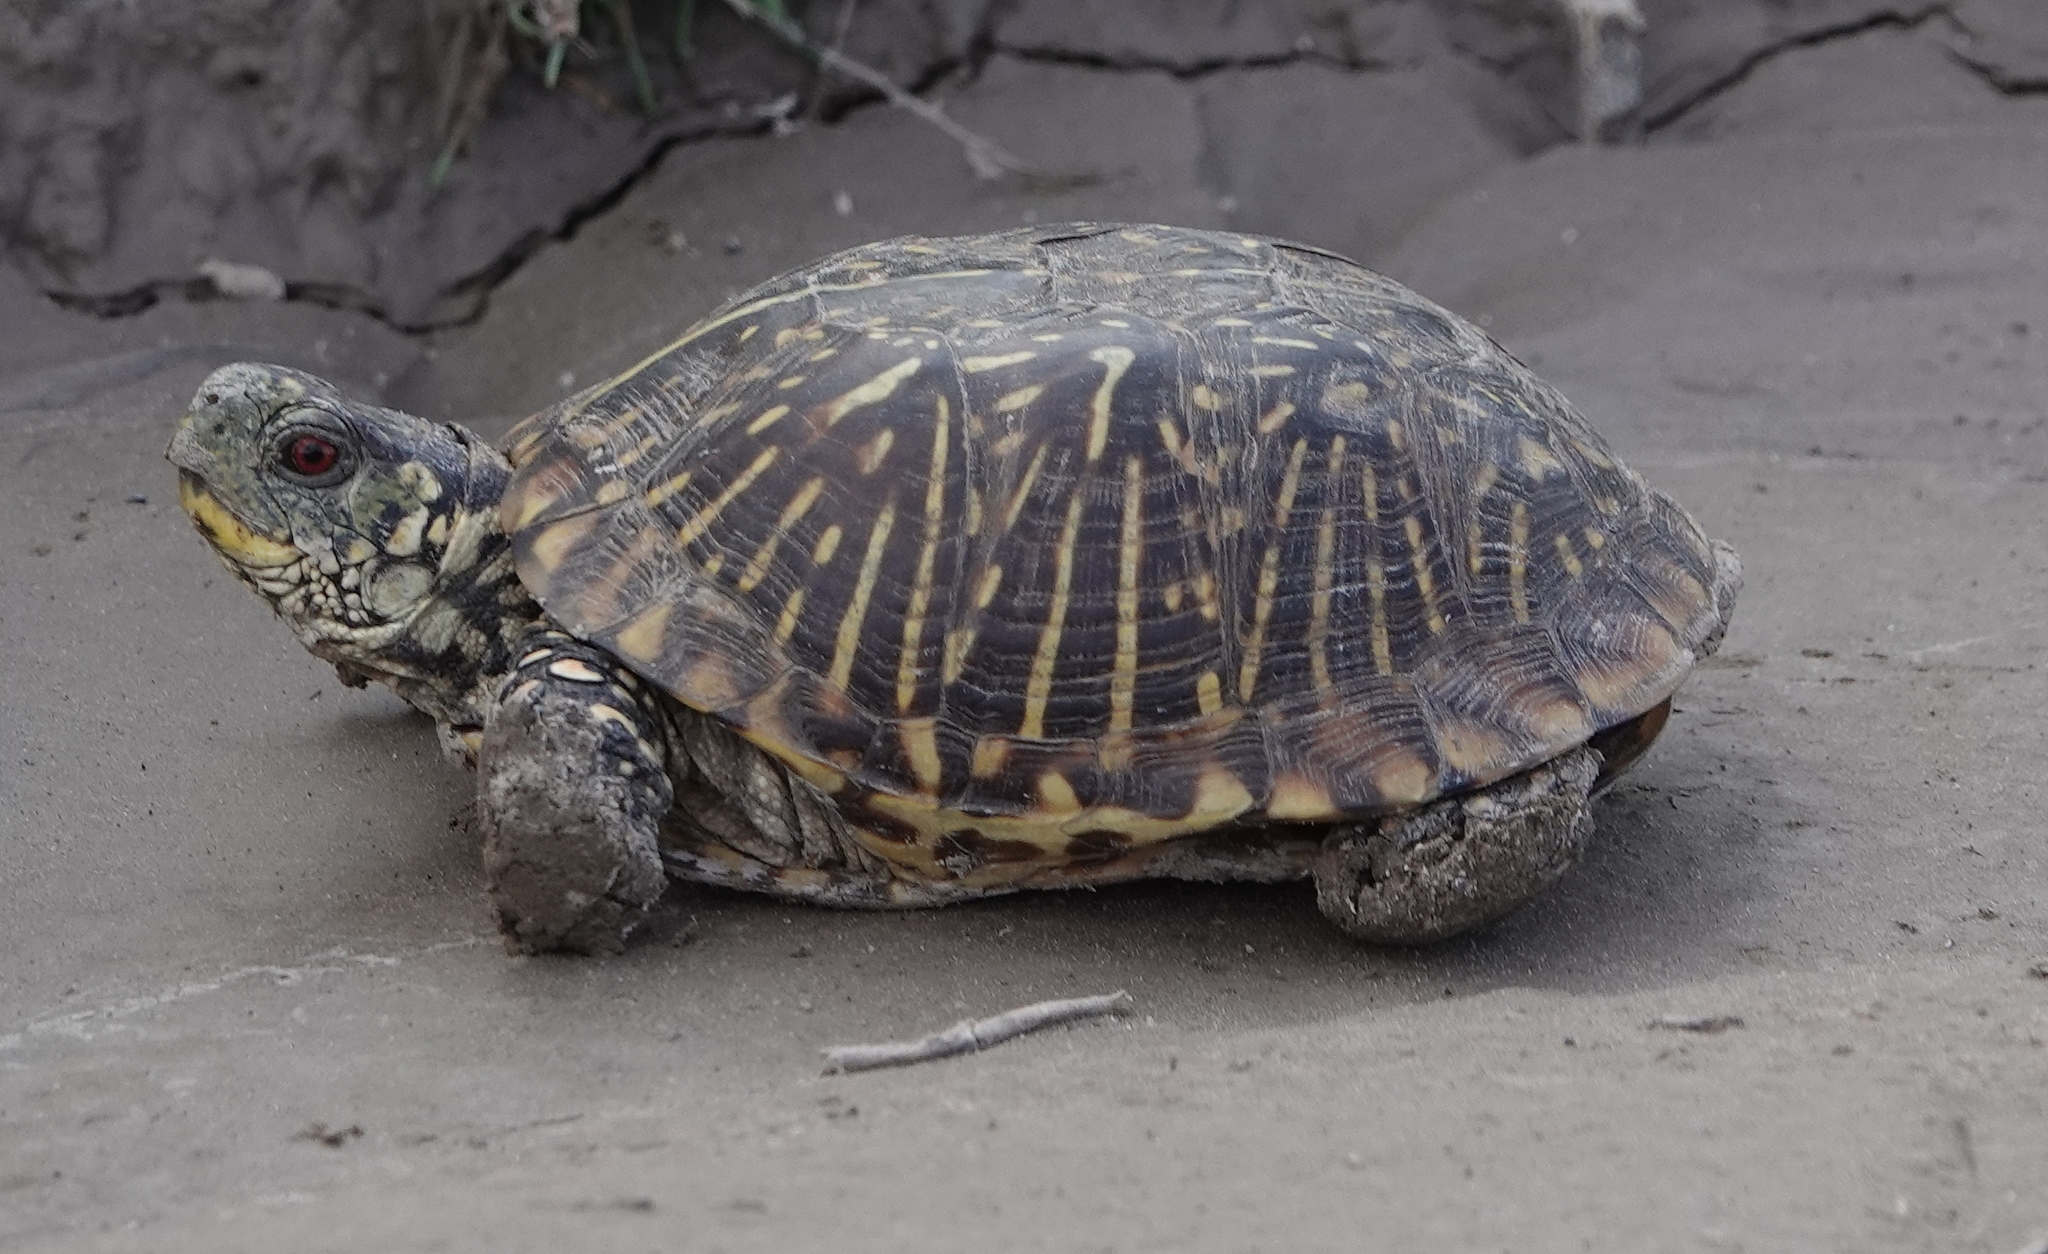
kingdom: Animalia
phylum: Chordata
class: Testudines
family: Emydidae
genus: Terrapene
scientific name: Terrapene ornata
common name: Western box turtle
